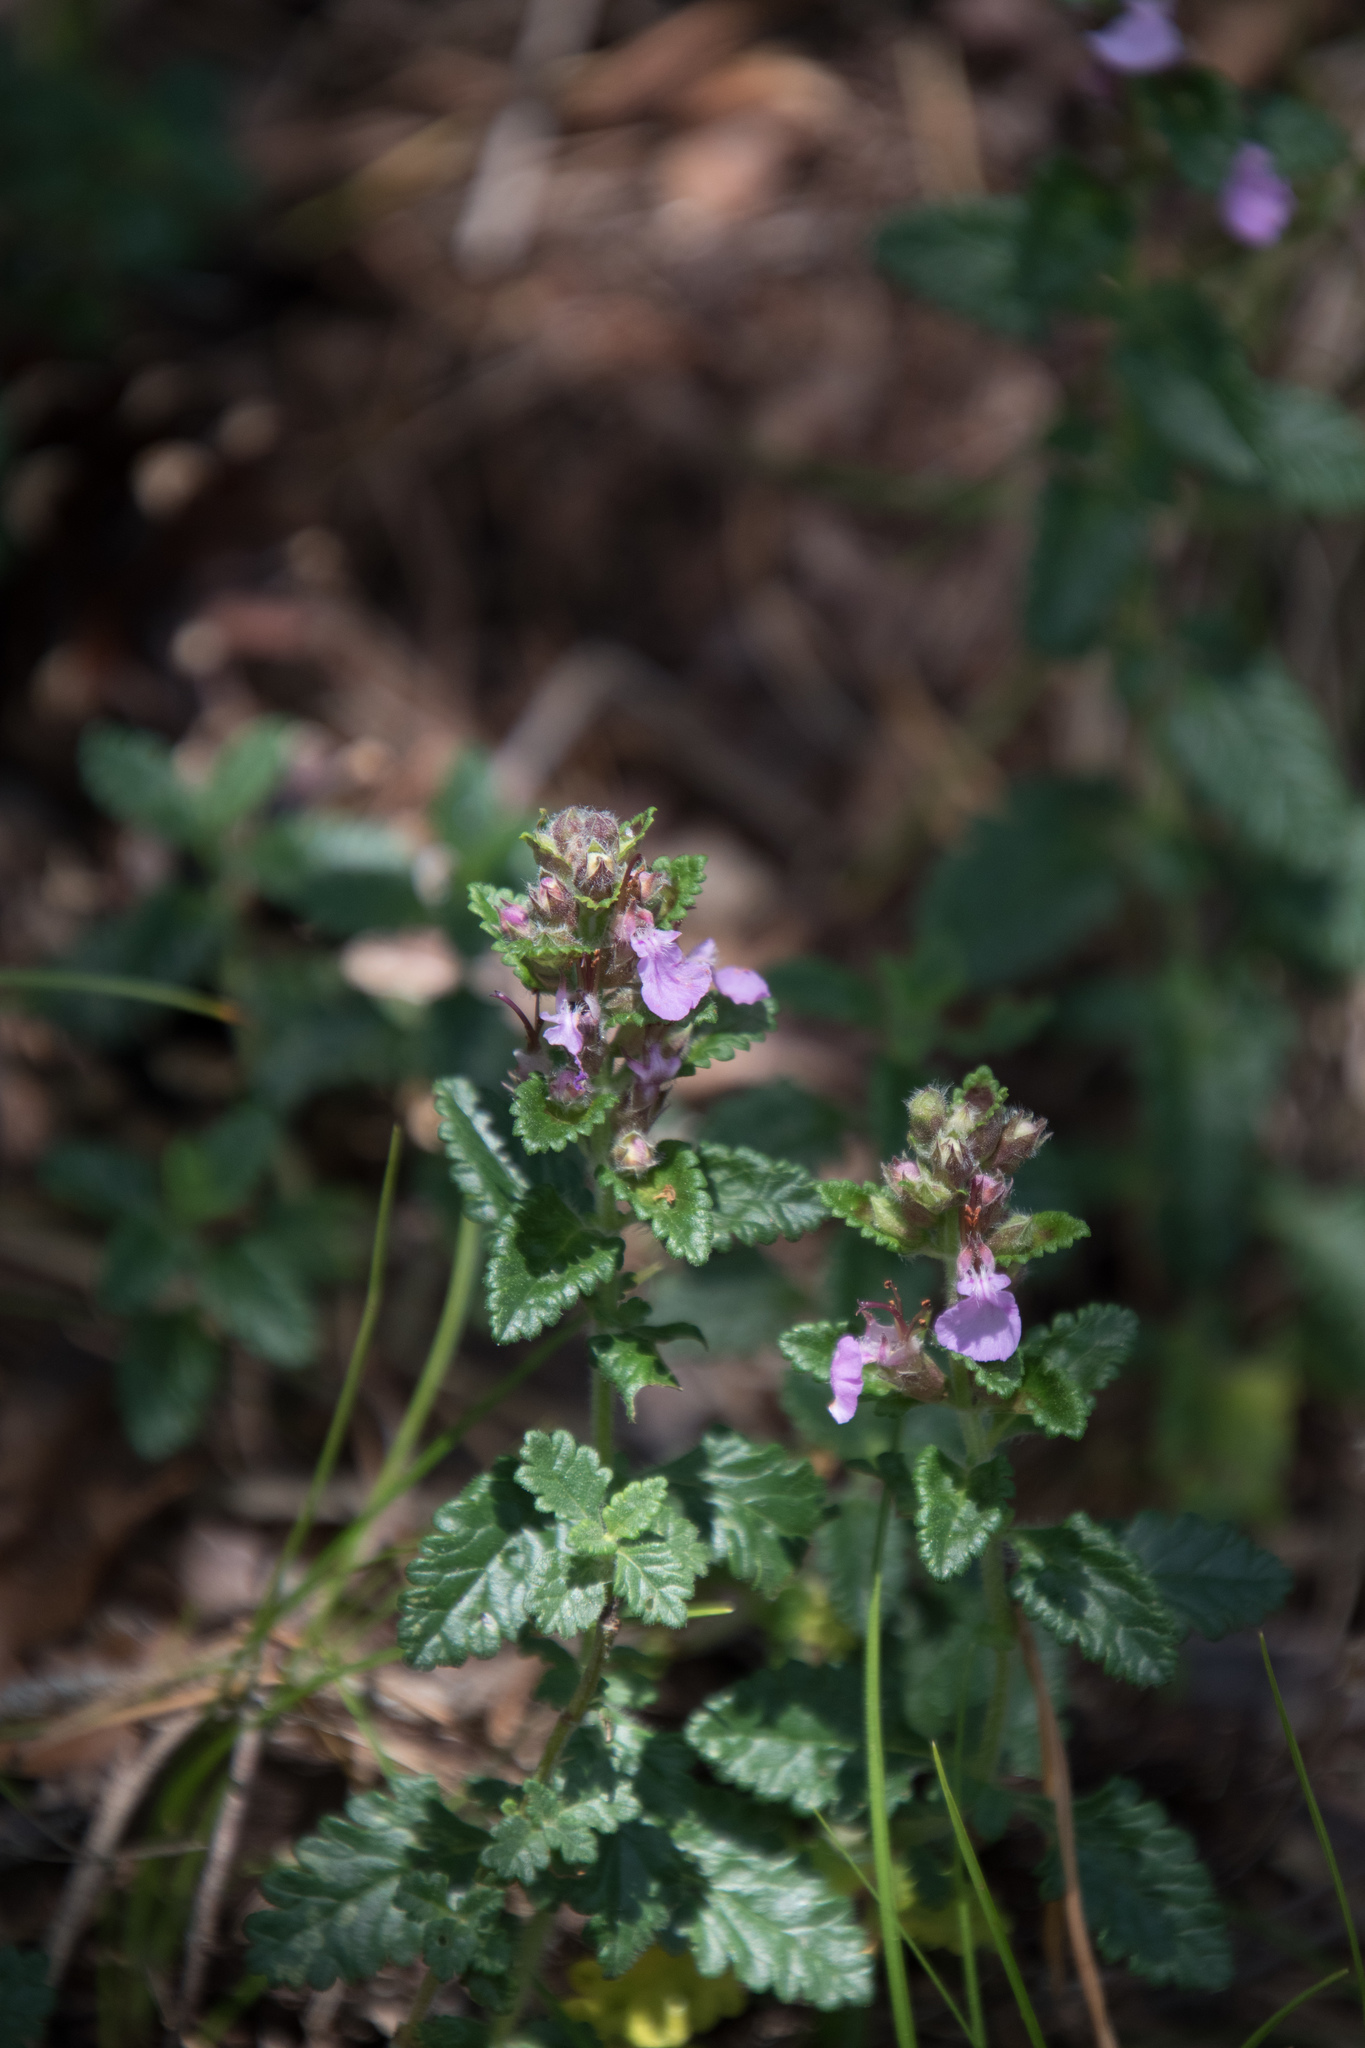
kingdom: Plantae
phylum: Tracheophyta
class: Magnoliopsida
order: Lamiales
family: Lamiaceae
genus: Teucrium
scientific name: Teucrium chamaedrys
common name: Wall germander
